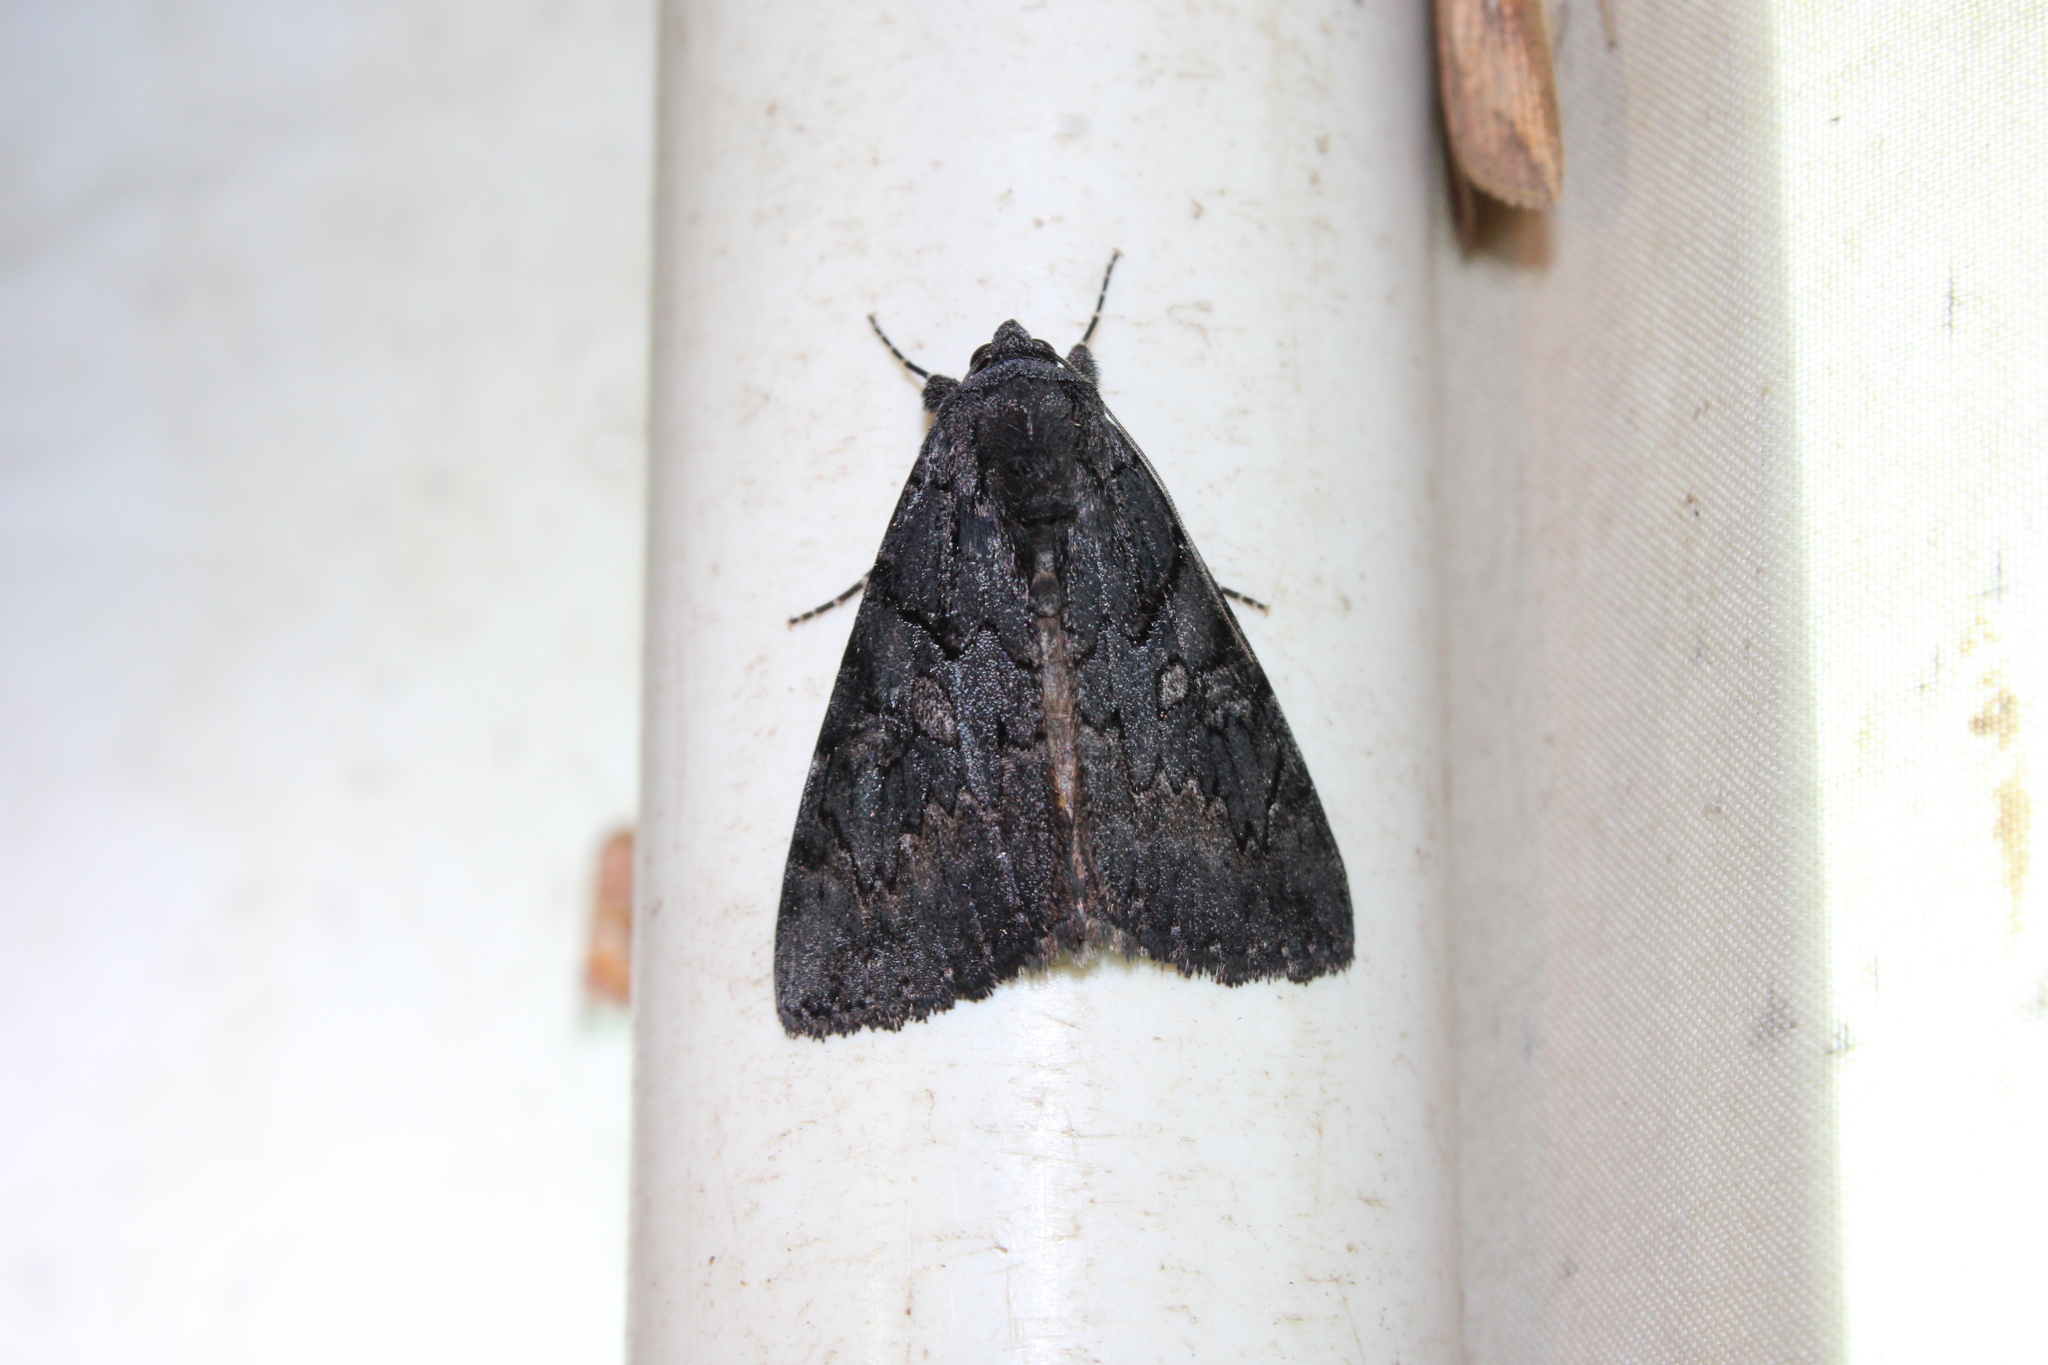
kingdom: Animalia
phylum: Arthropoda
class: Insecta
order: Lepidoptera
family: Erebidae
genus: Catocala
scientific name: Catocala antinympha
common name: Sweetfern underwing
